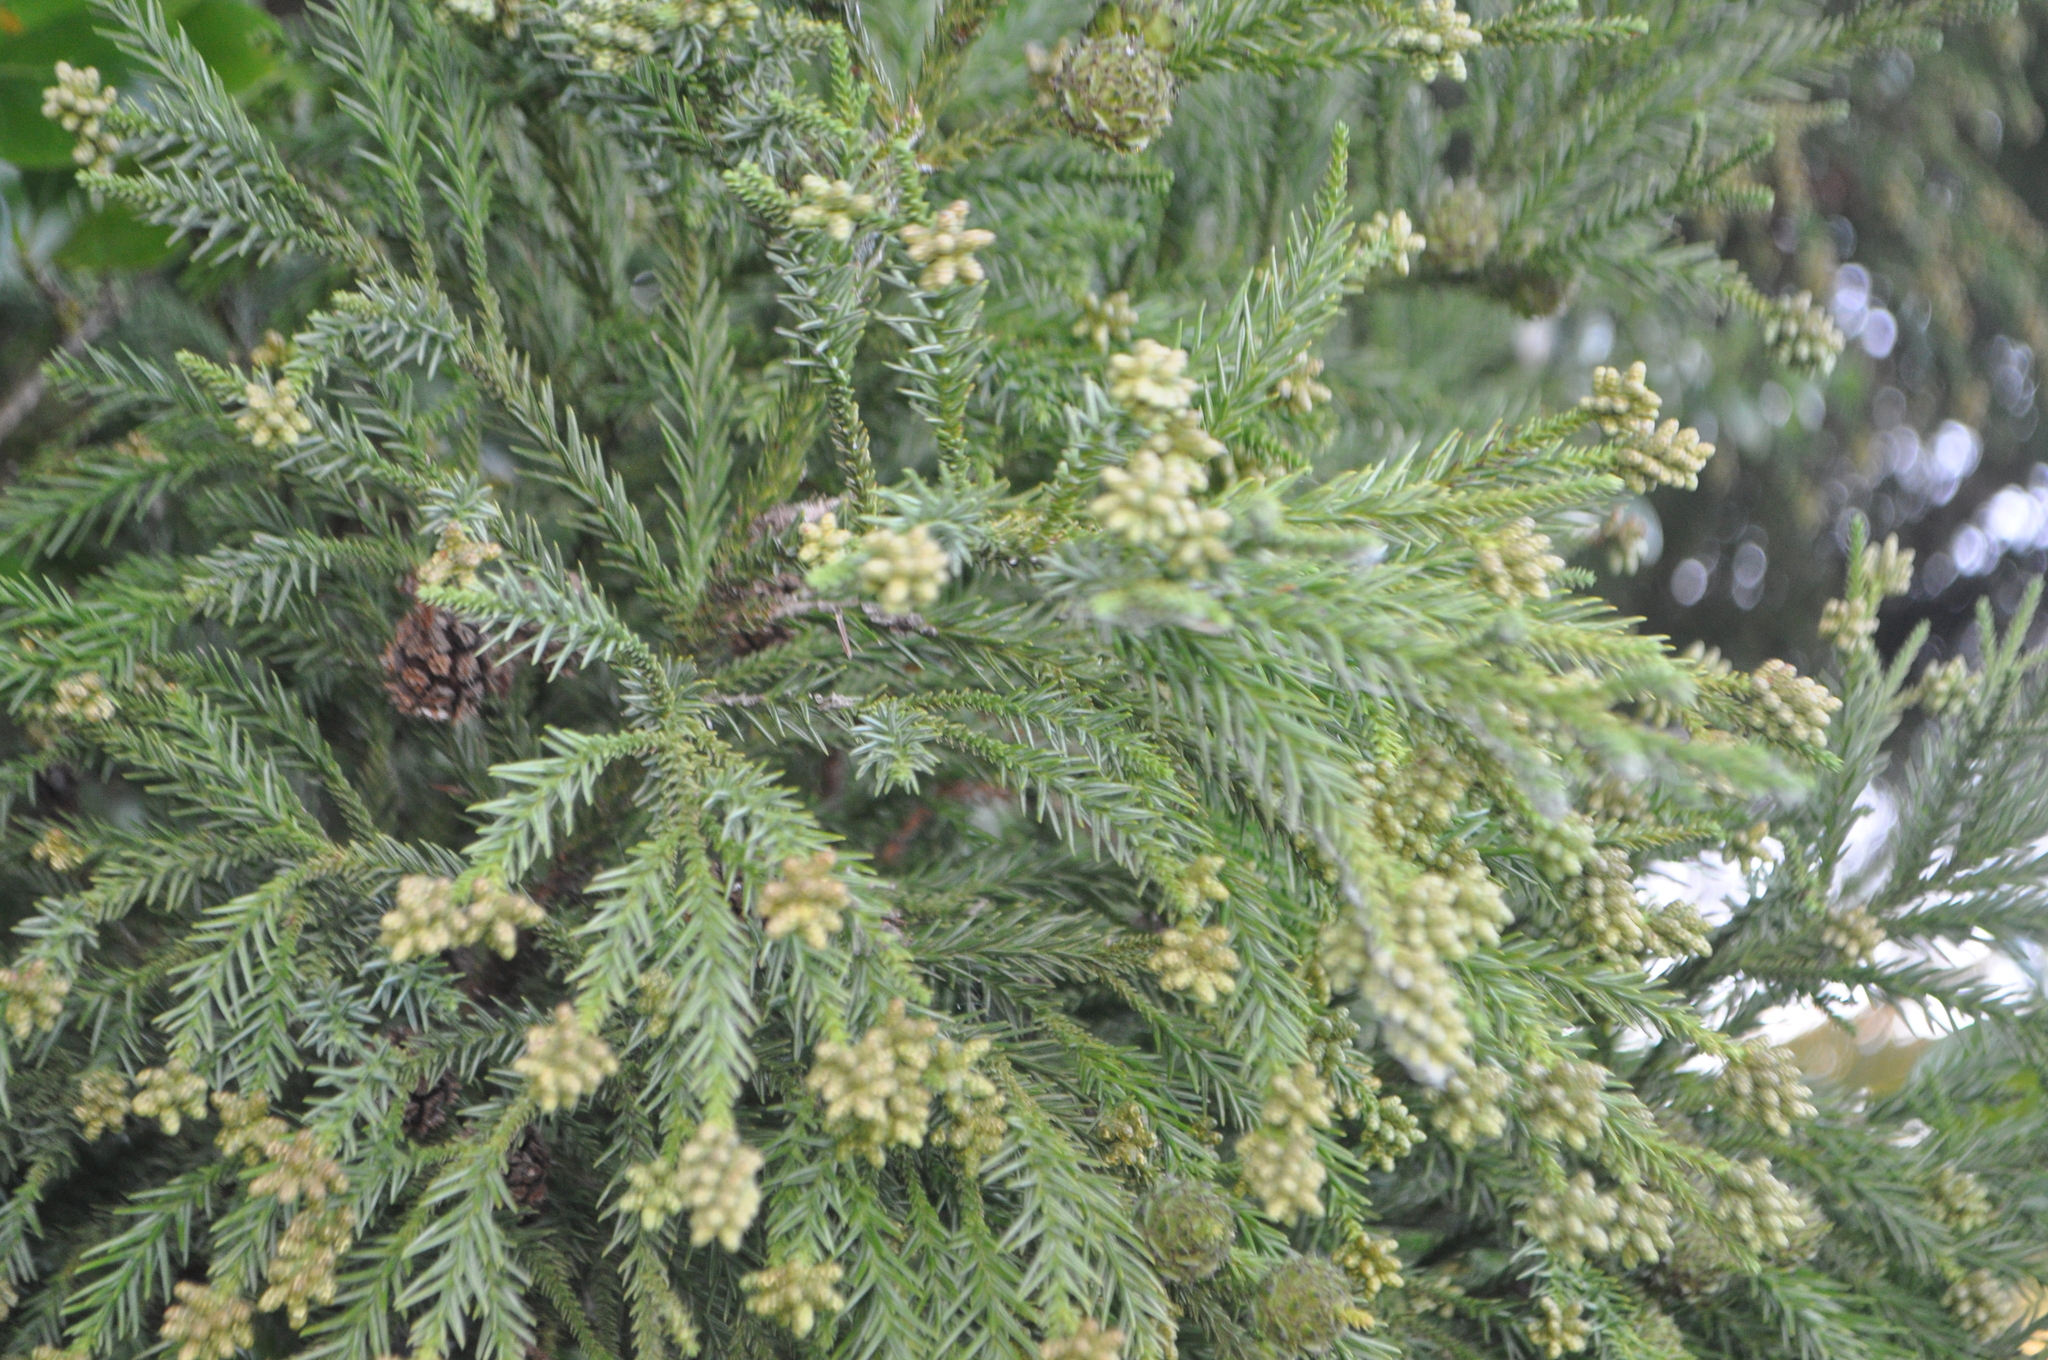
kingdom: Plantae
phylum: Tracheophyta
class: Pinopsida
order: Pinales
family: Cupressaceae
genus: Cryptomeria
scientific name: Cryptomeria japonica
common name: Japanese cedar
